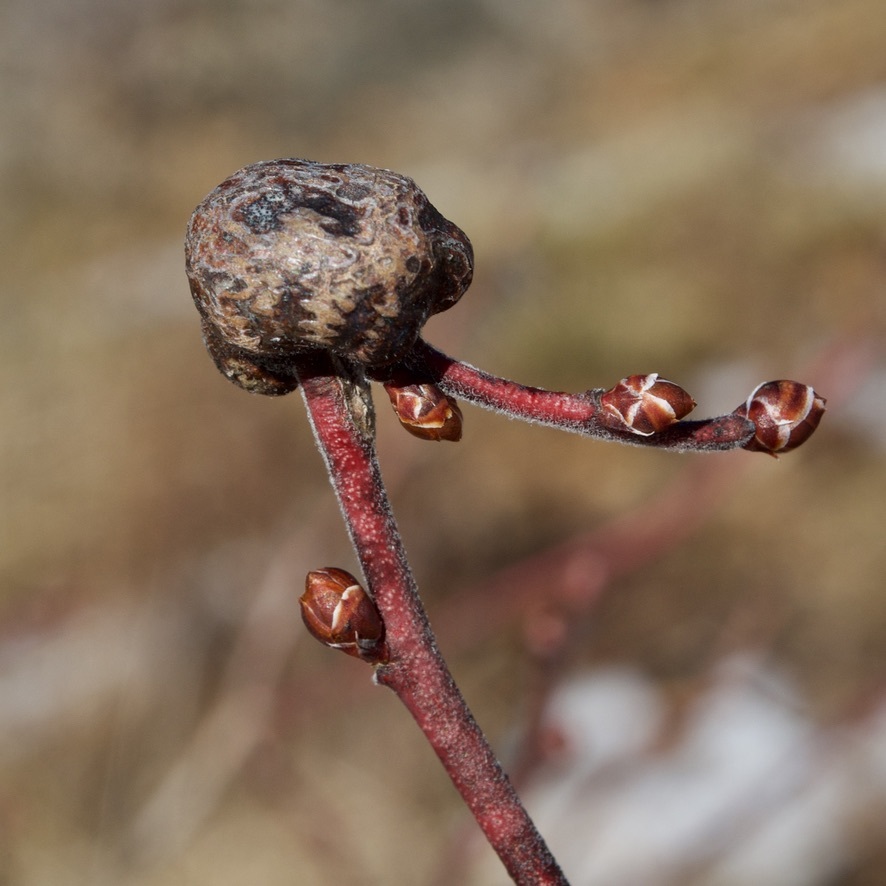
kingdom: Animalia
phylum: Arthropoda
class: Insecta
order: Hymenoptera
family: Pteromalidae
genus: Hemadas
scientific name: Hemadas nubilipennis
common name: Blueberry stem gall wasp
